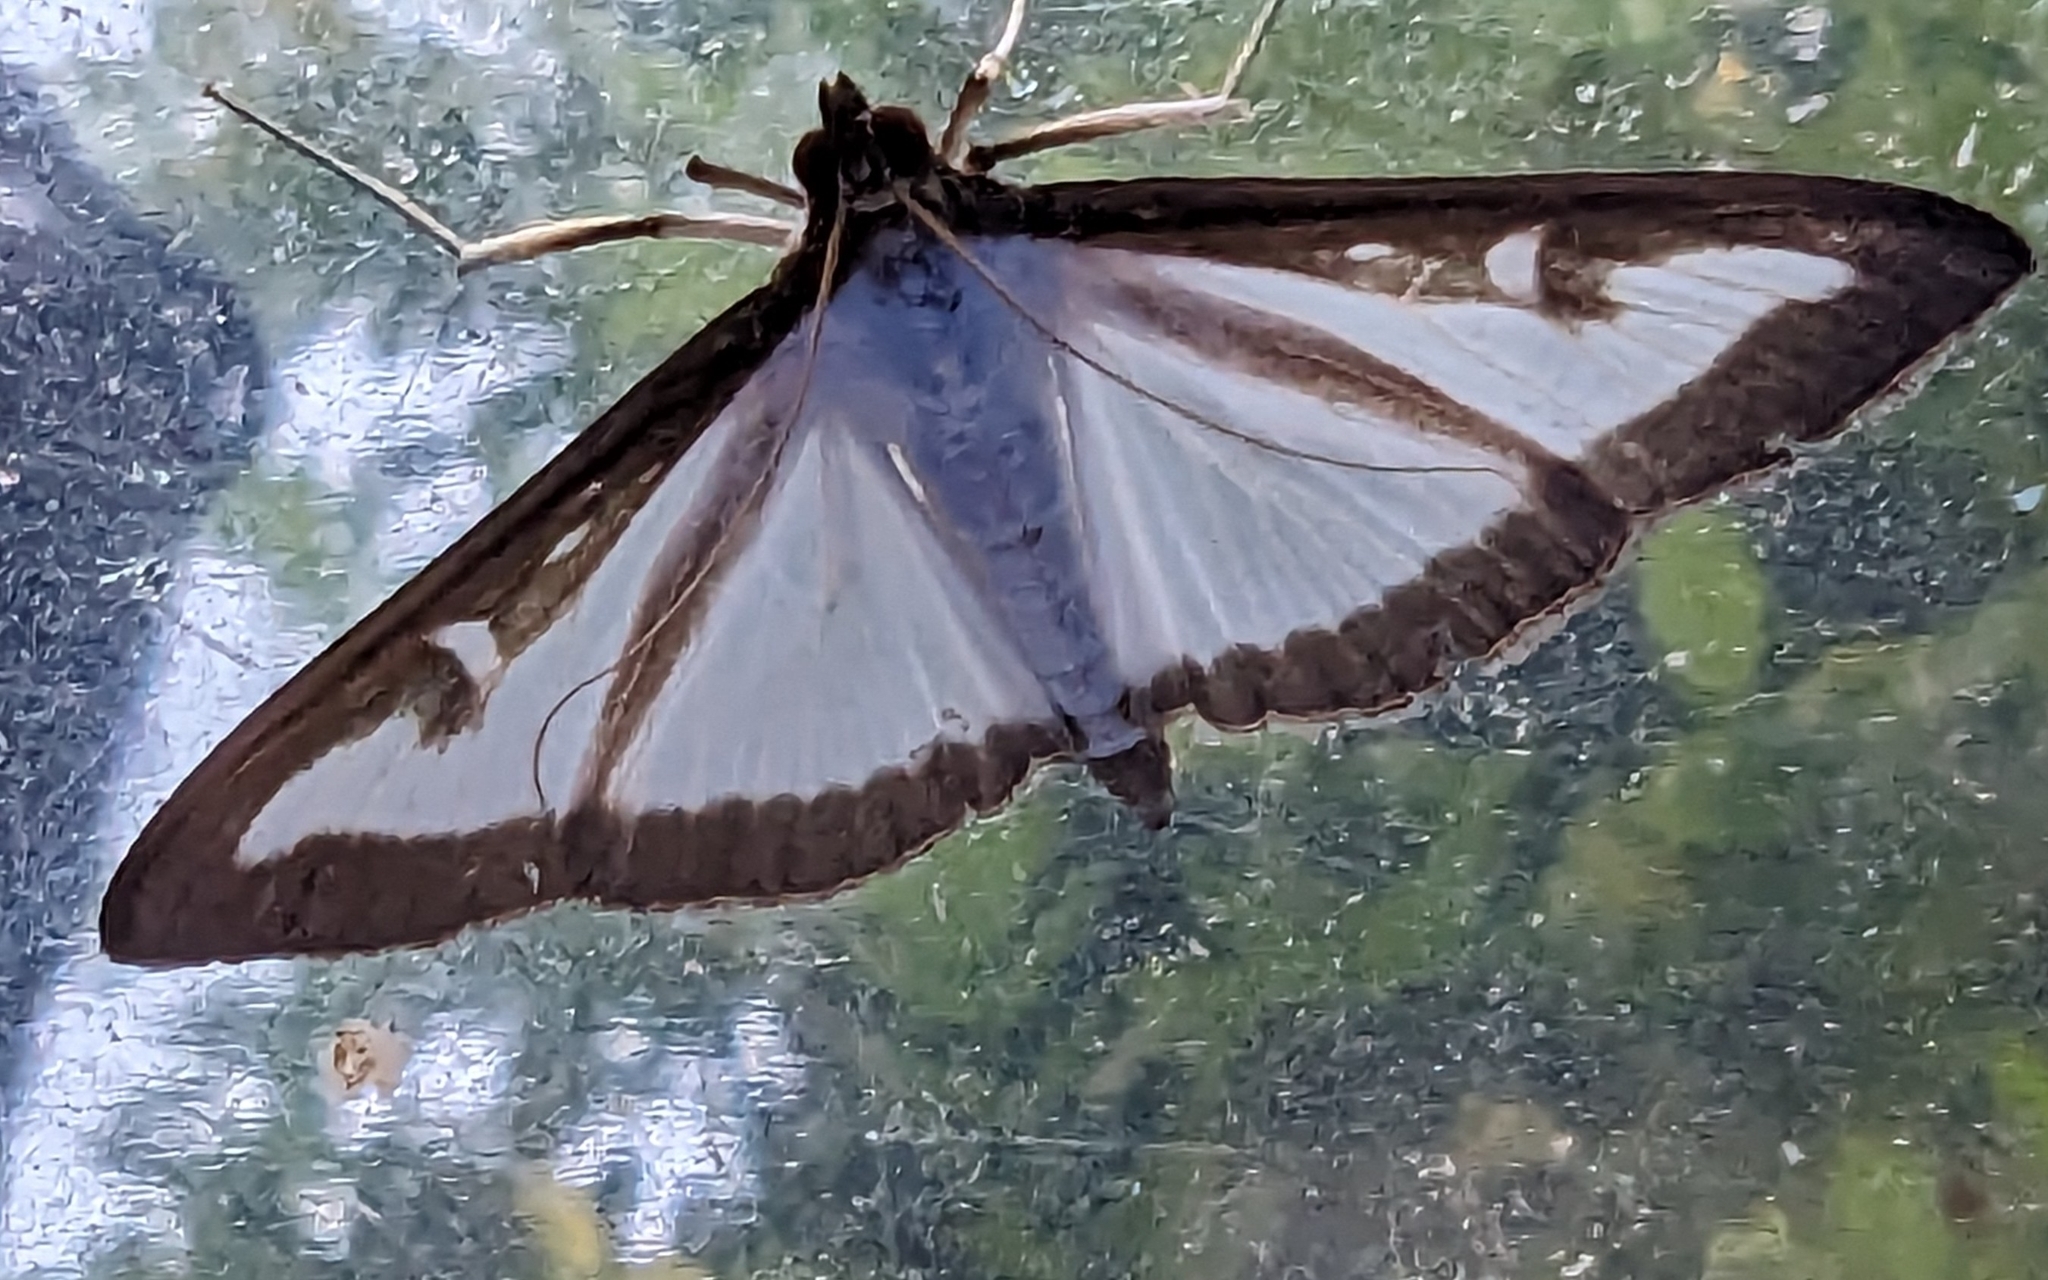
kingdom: Animalia
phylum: Arthropoda
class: Insecta
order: Lepidoptera
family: Crambidae
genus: Cydalima
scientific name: Cydalima perspectalis
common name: Box tree moth
